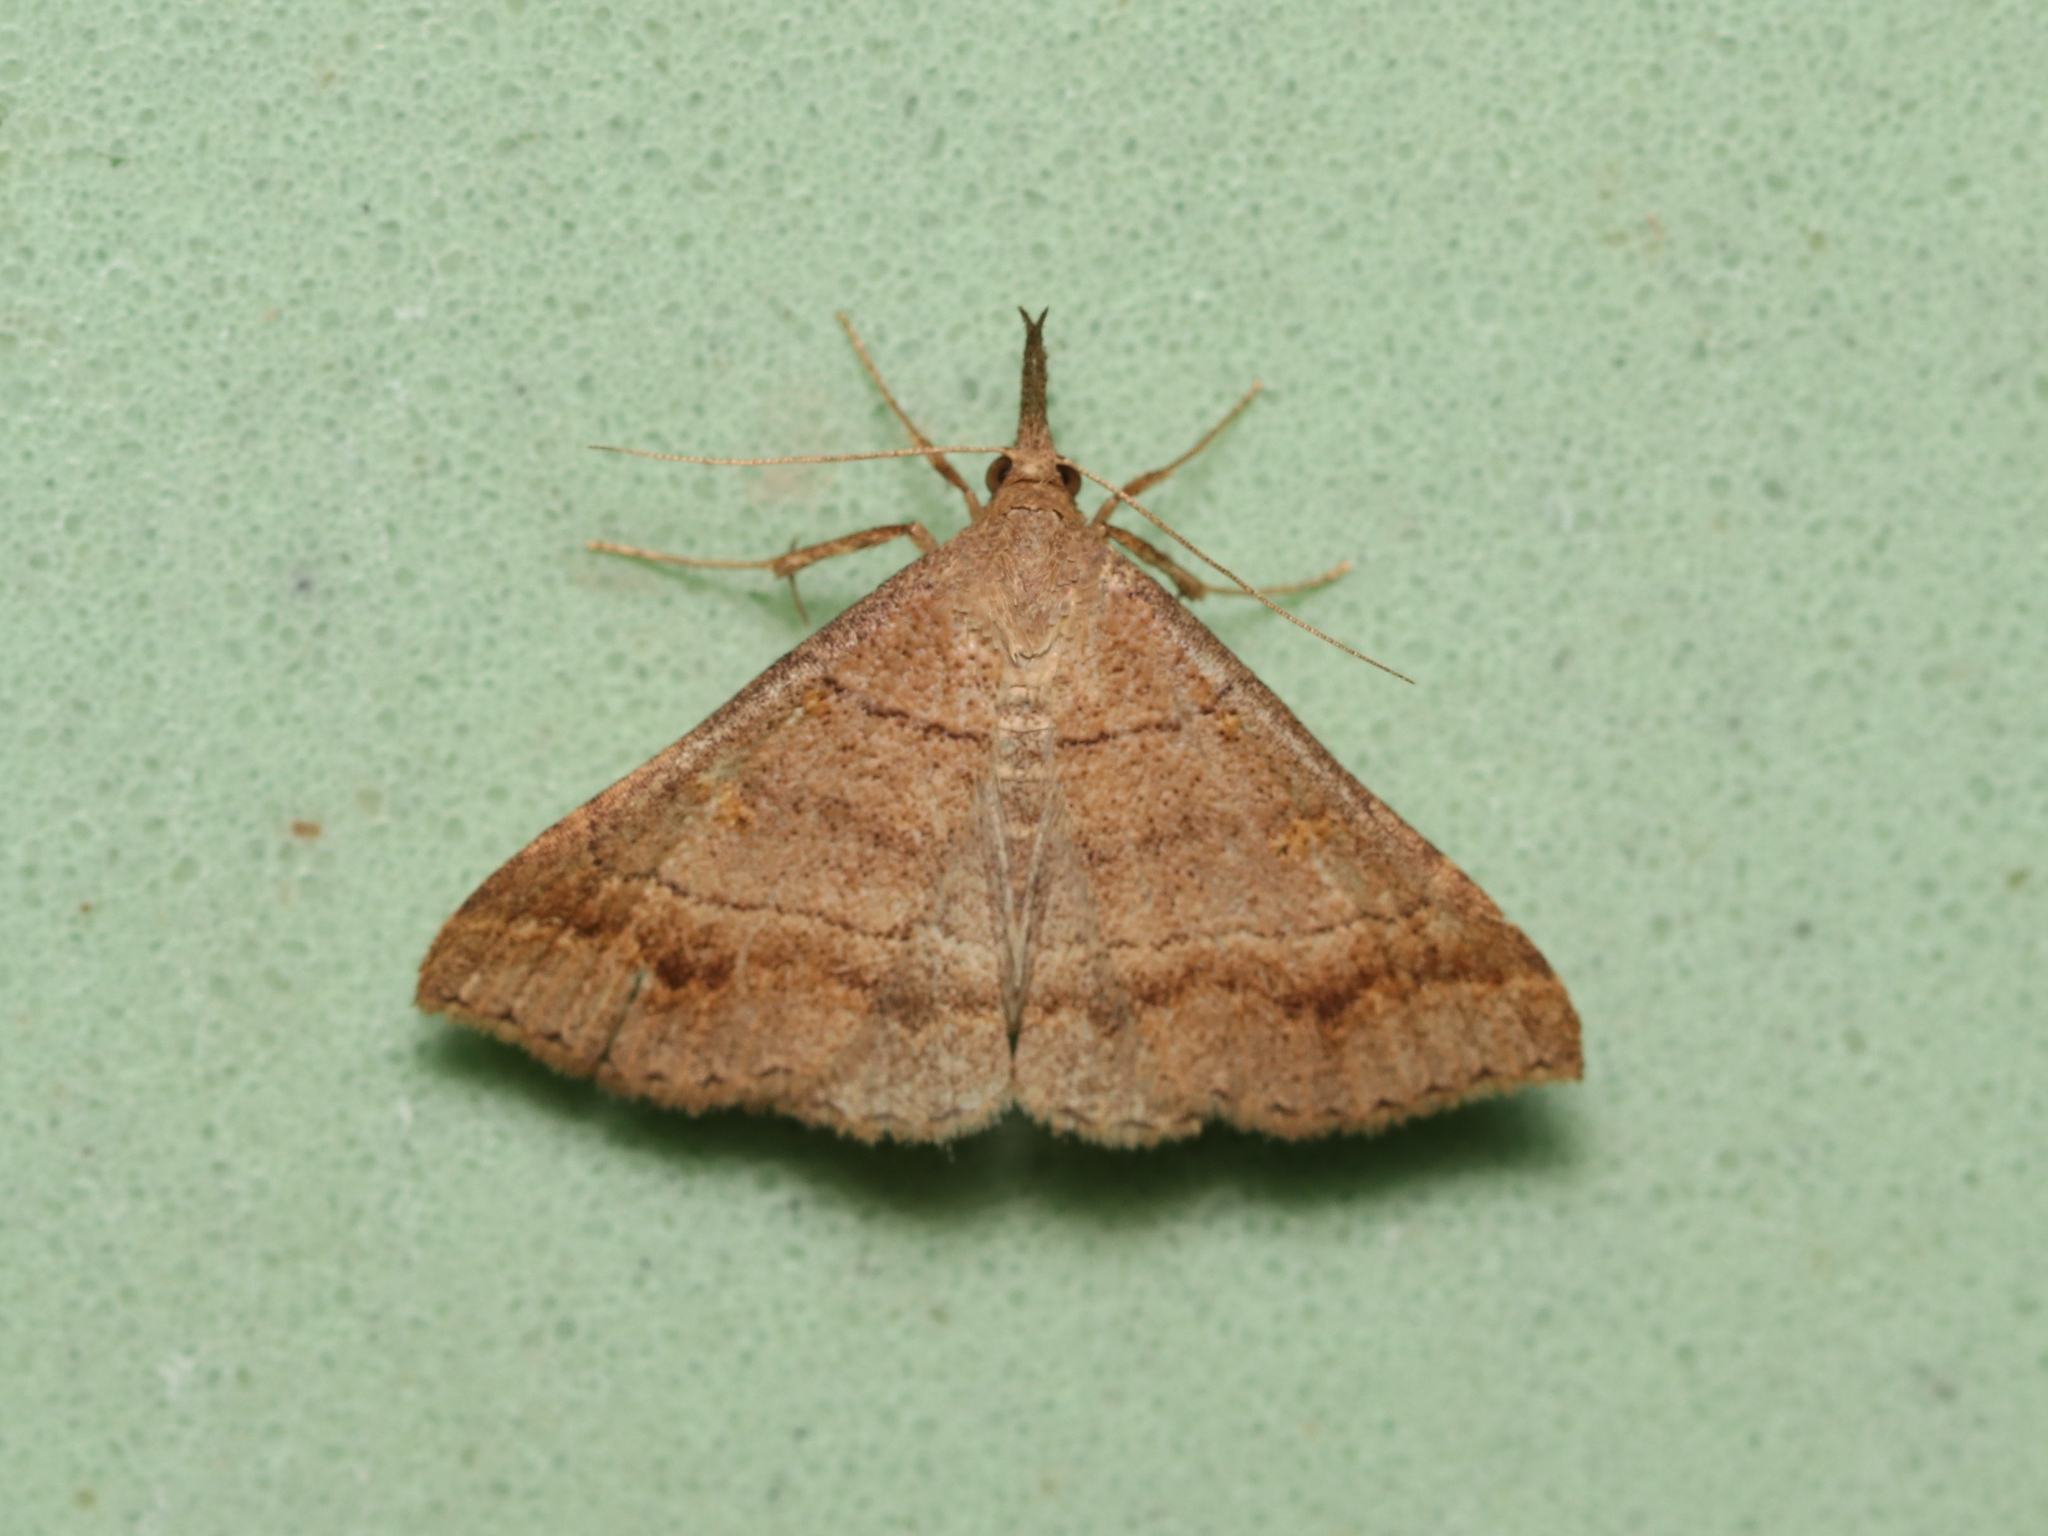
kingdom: Animalia
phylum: Arthropoda
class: Insecta
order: Lepidoptera
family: Erebidae
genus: Renia
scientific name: Renia flavipunctalis
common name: Yellow-spotted renia moth
